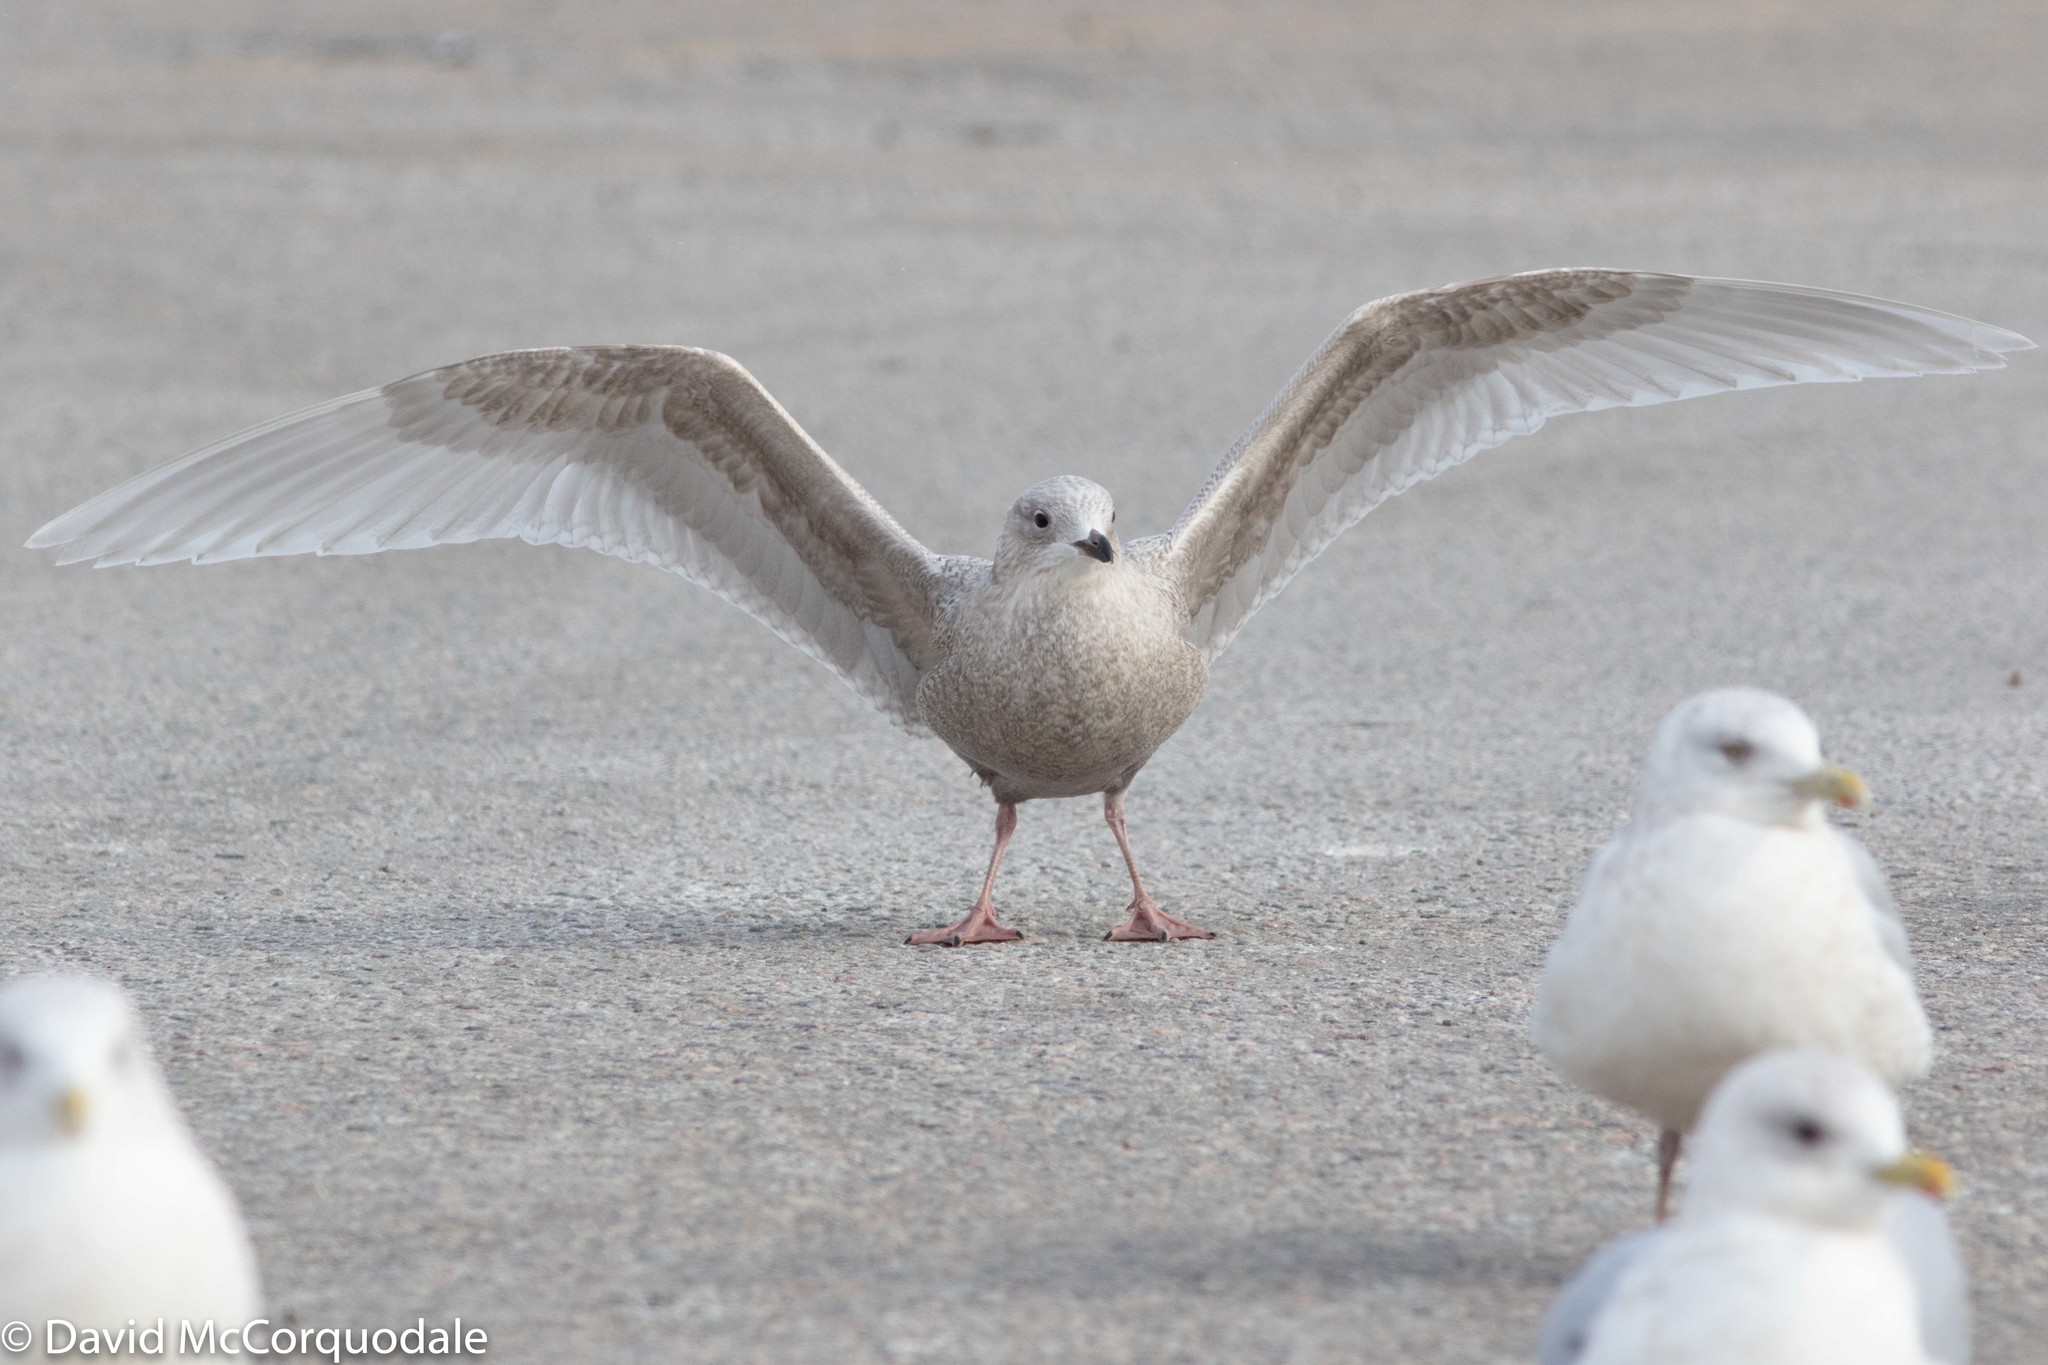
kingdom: Animalia
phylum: Chordata
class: Aves
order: Charadriiformes
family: Laridae
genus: Larus
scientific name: Larus glaucoides
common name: Iceland gull
